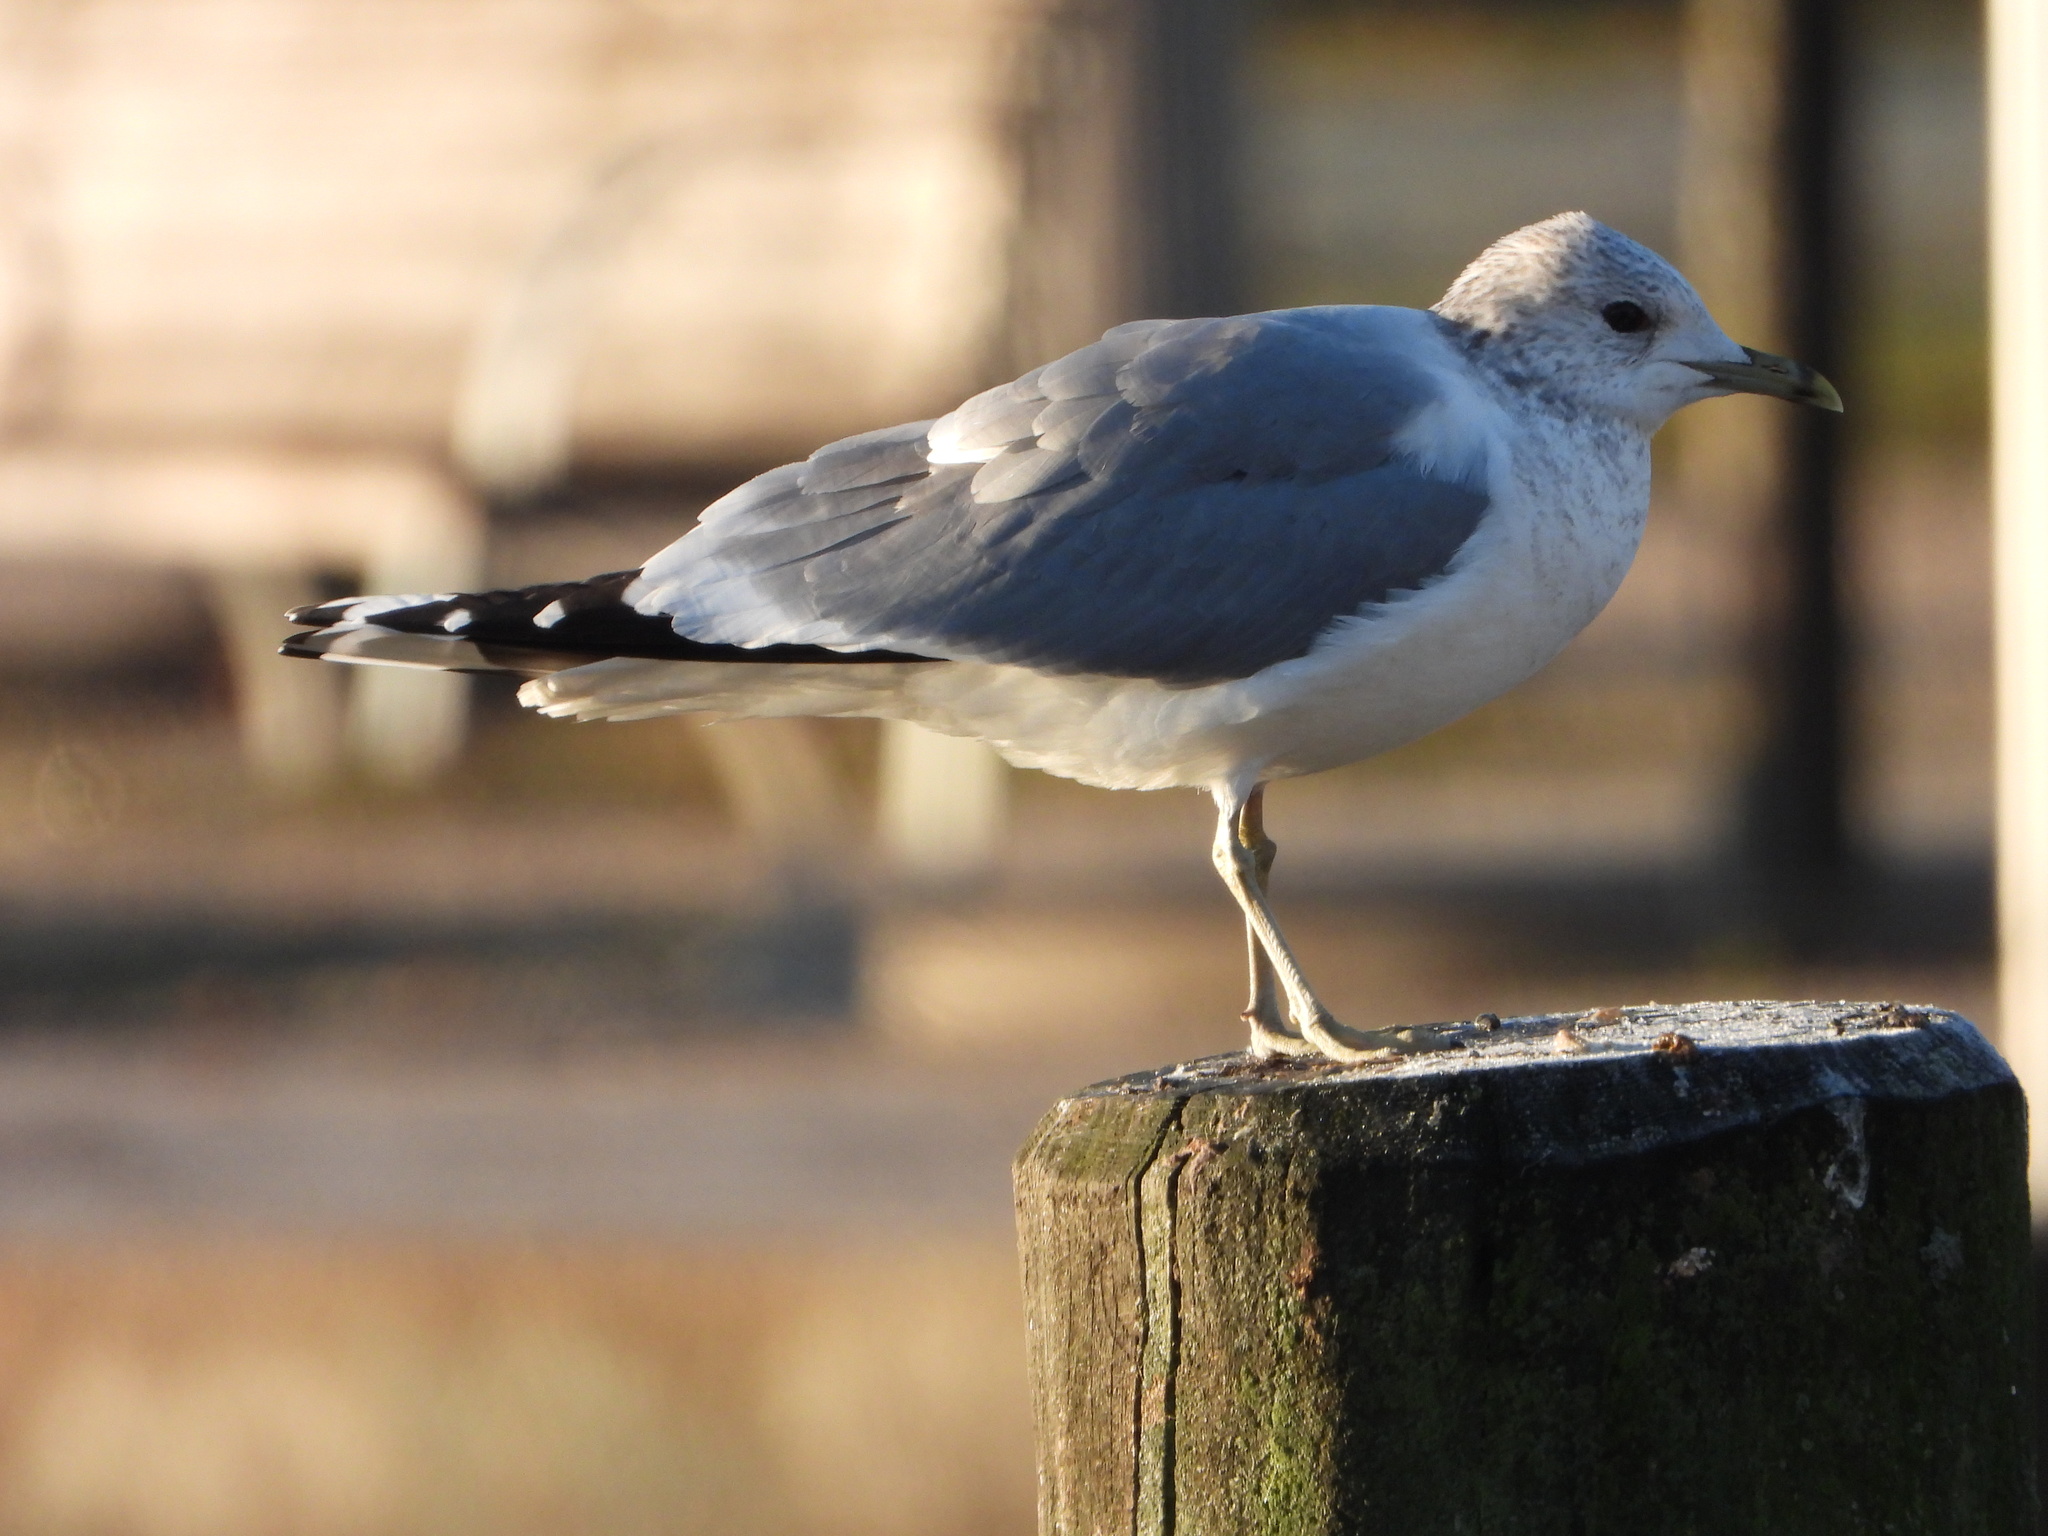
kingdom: Animalia
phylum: Chordata
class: Aves
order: Charadriiformes
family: Laridae
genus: Larus
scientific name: Larus canus
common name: Mew gull
